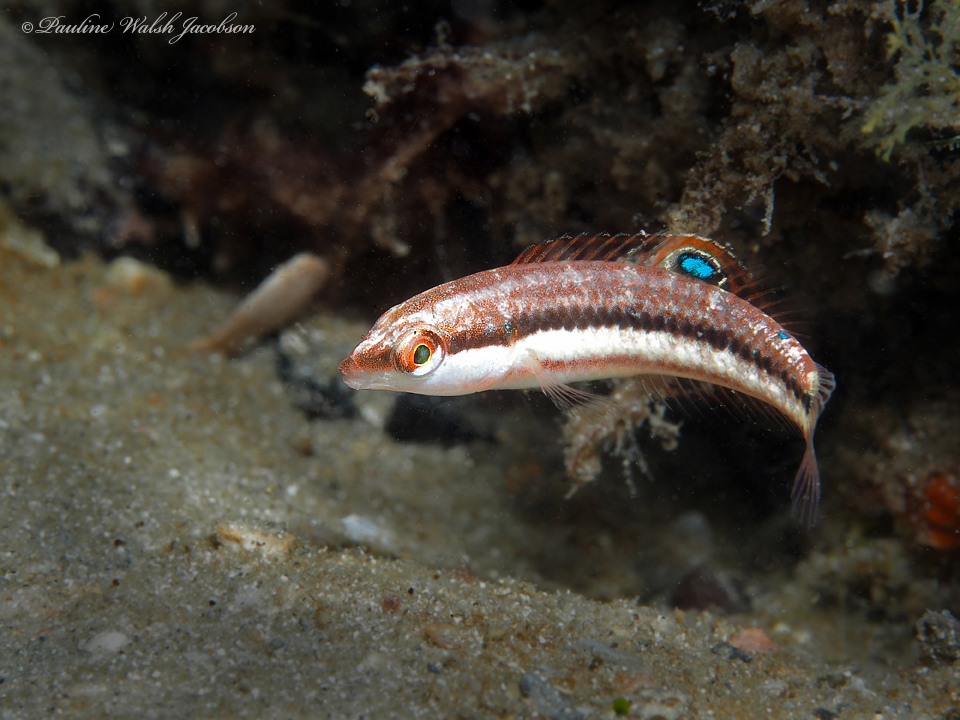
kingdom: Animalia
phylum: Chordata
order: Perciformes
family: Labridae
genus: Halichoeres
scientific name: Halichoeres bivittatus
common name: Slippery dick
